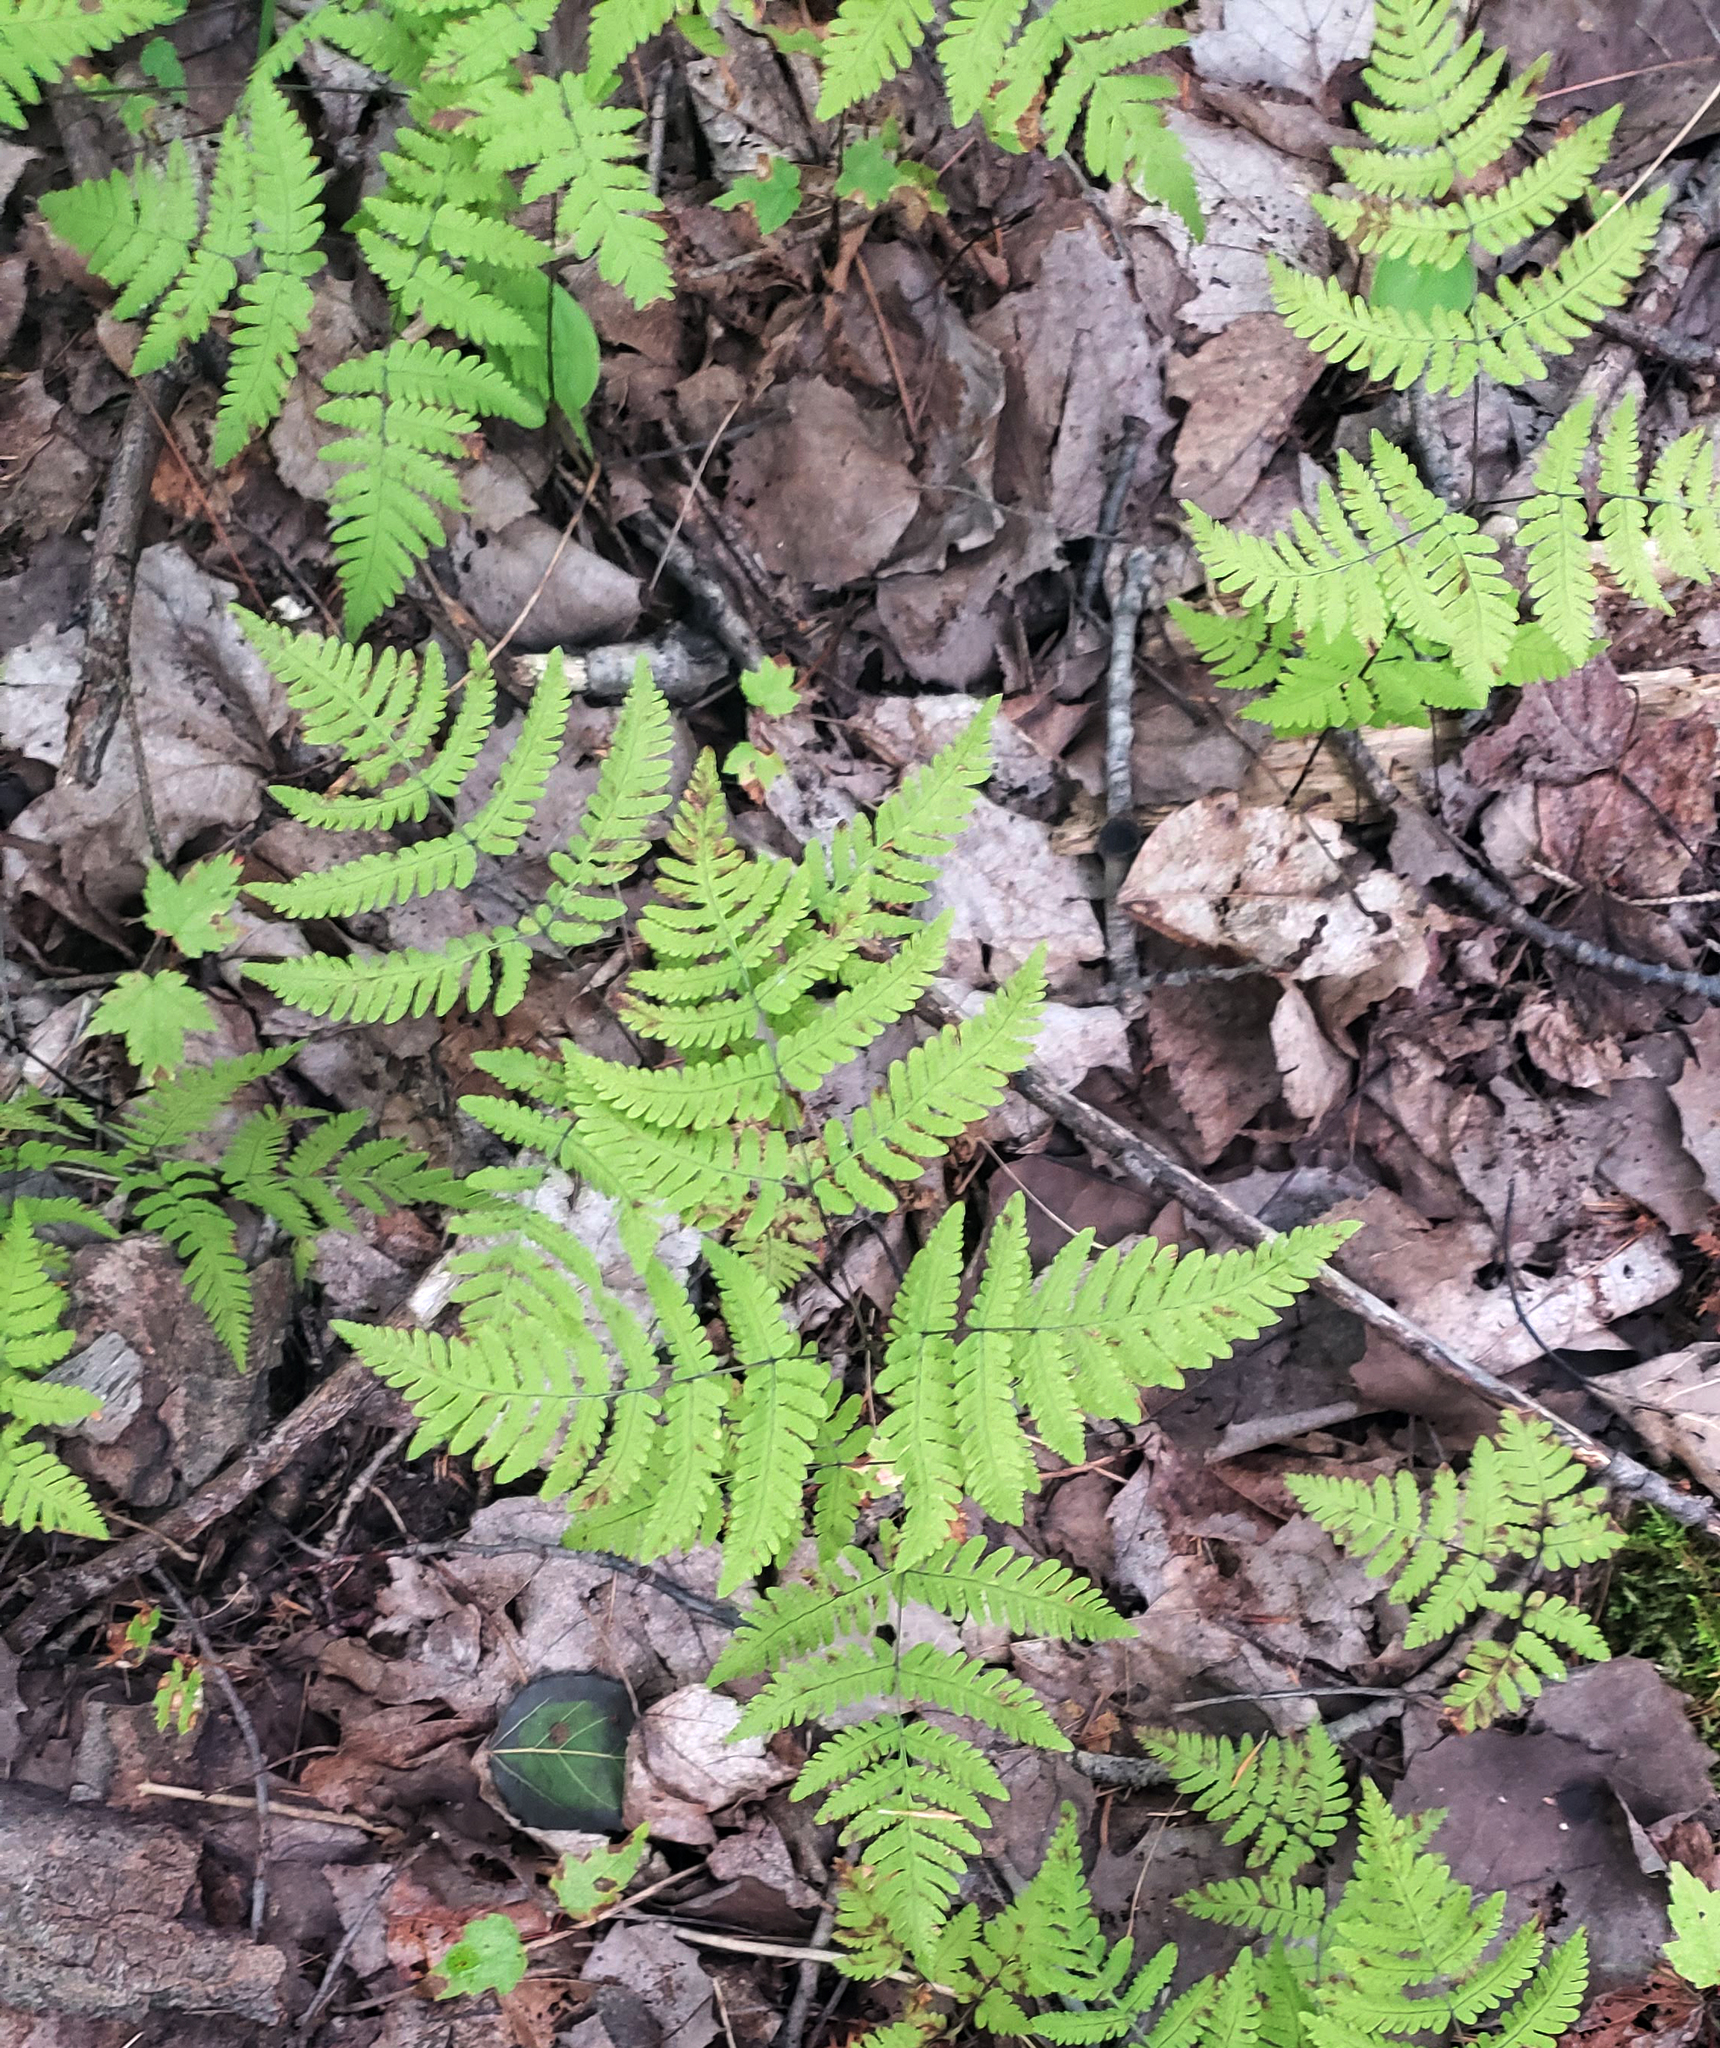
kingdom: Plantae
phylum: Tracheophyta
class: Polypodiopsida
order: Polypodiales
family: Cystopteridaceae
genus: Gymnocarpium
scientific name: Gymnocarpium dryopteris
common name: Oak fern
